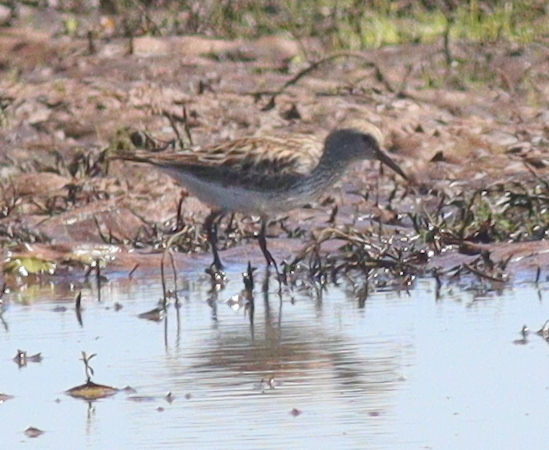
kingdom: Animalia
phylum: Chordata
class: Aves
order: Charadriiformes
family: Scolopacidae
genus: Calidris
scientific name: Calidris fuscicollis
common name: White-rumped sandpiper
